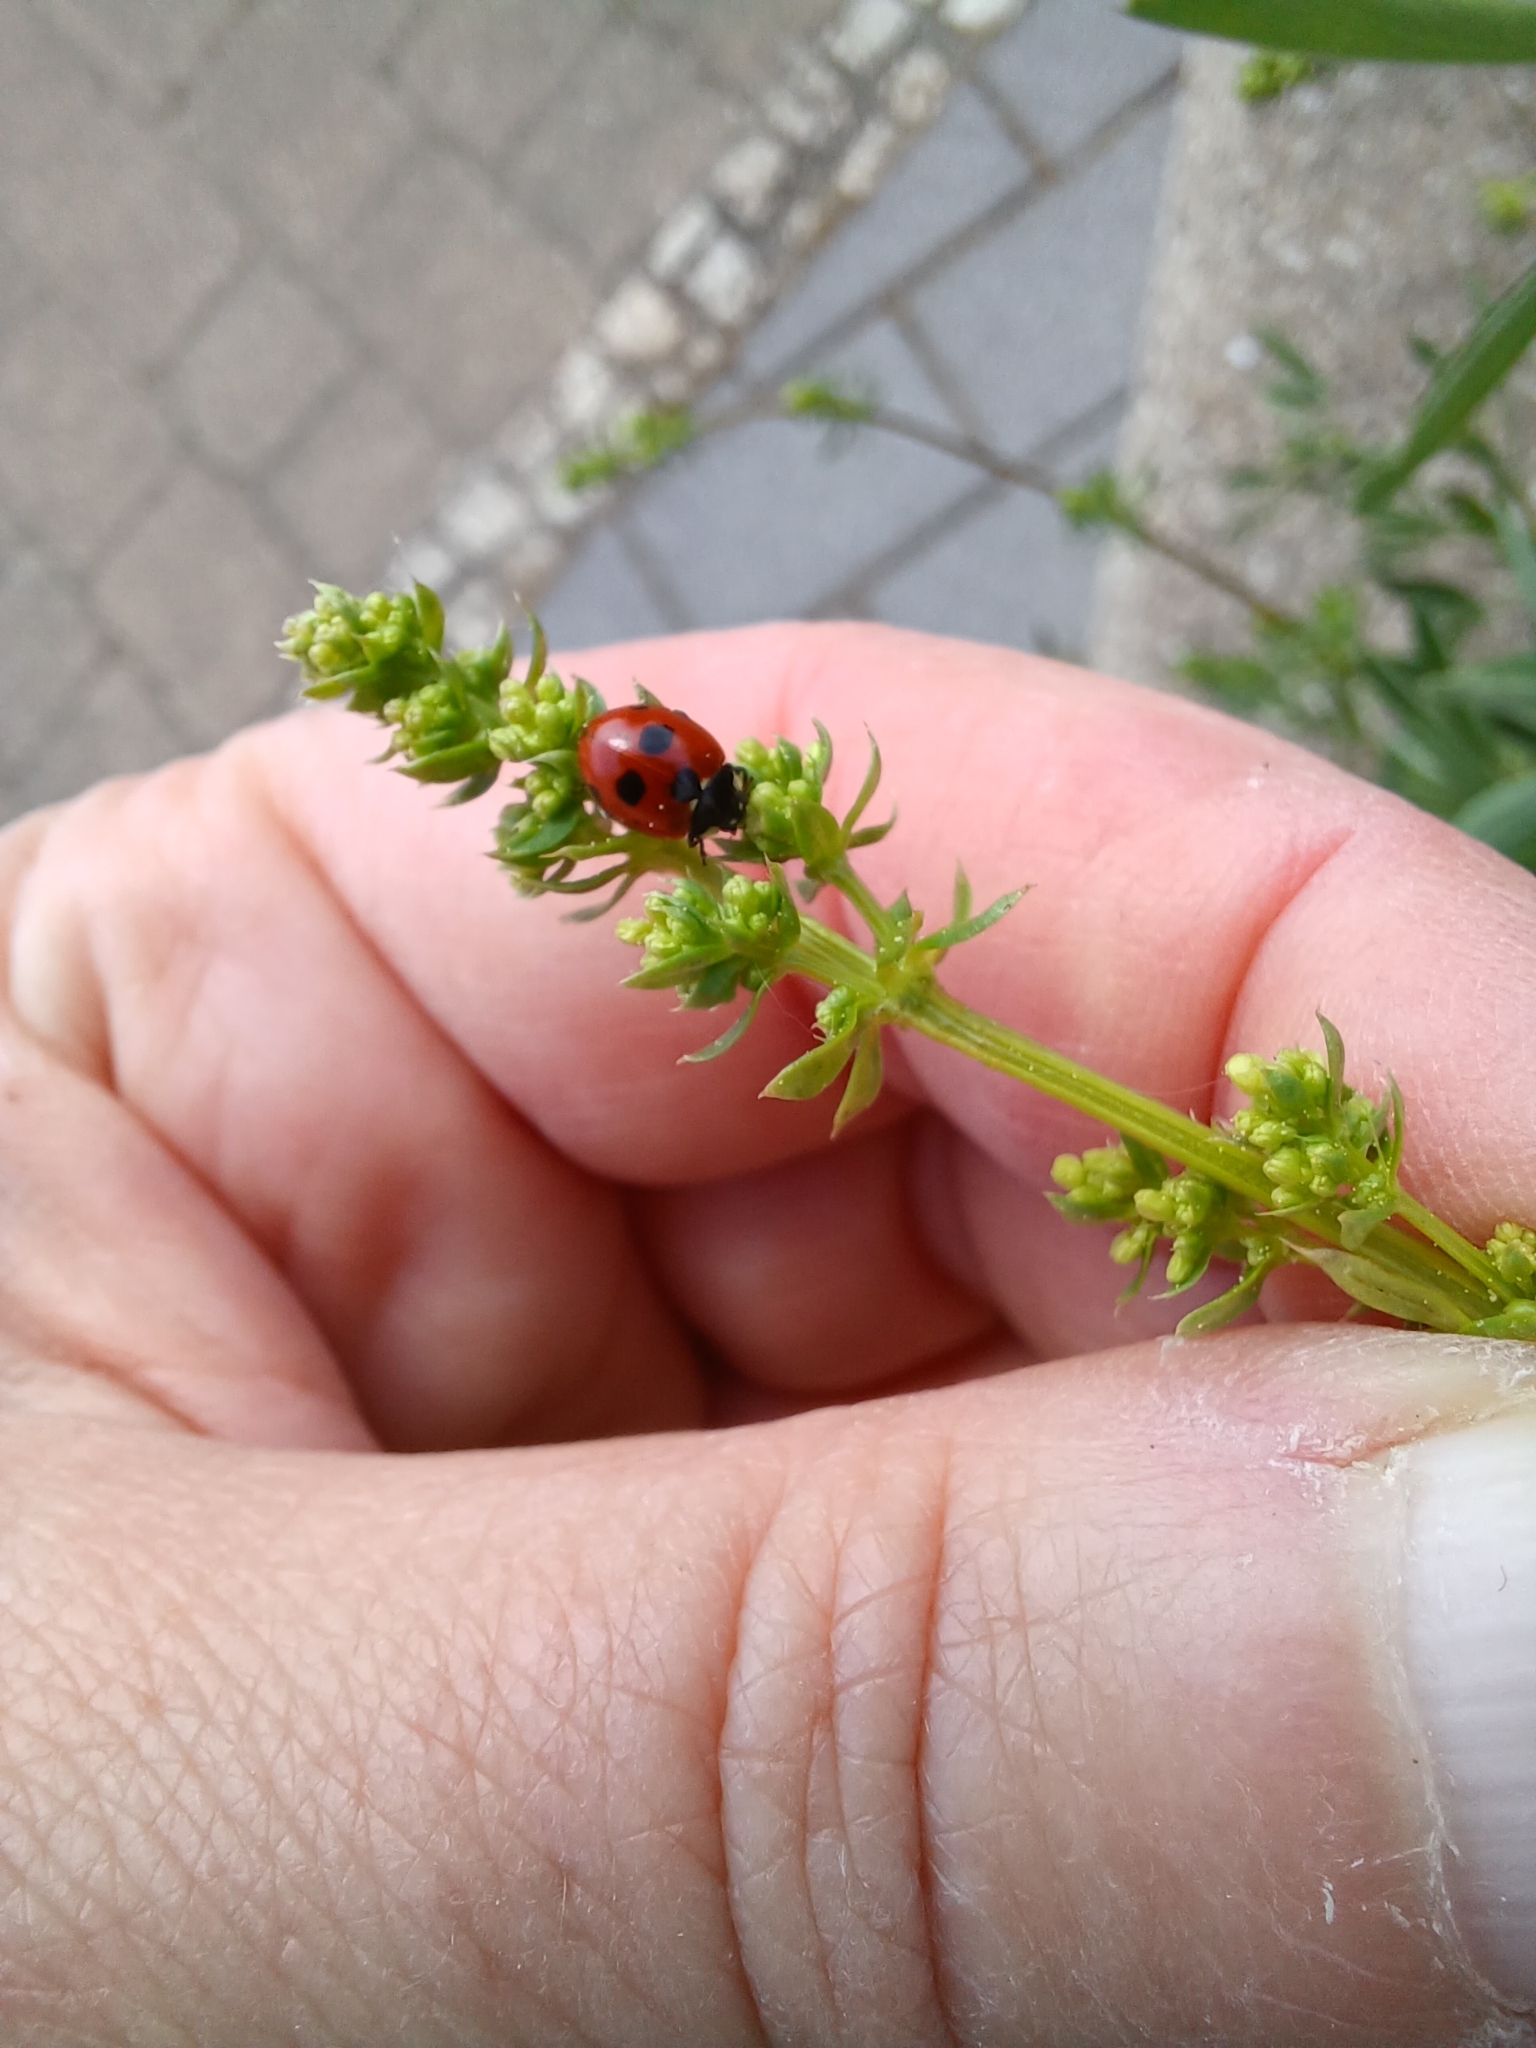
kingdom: Animalia
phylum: Arthropoda
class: Insecta
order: Coleoptera
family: Coccinellidae
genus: Coccinella
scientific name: Coccinella quinquepunctata
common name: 5-spot ladybird
